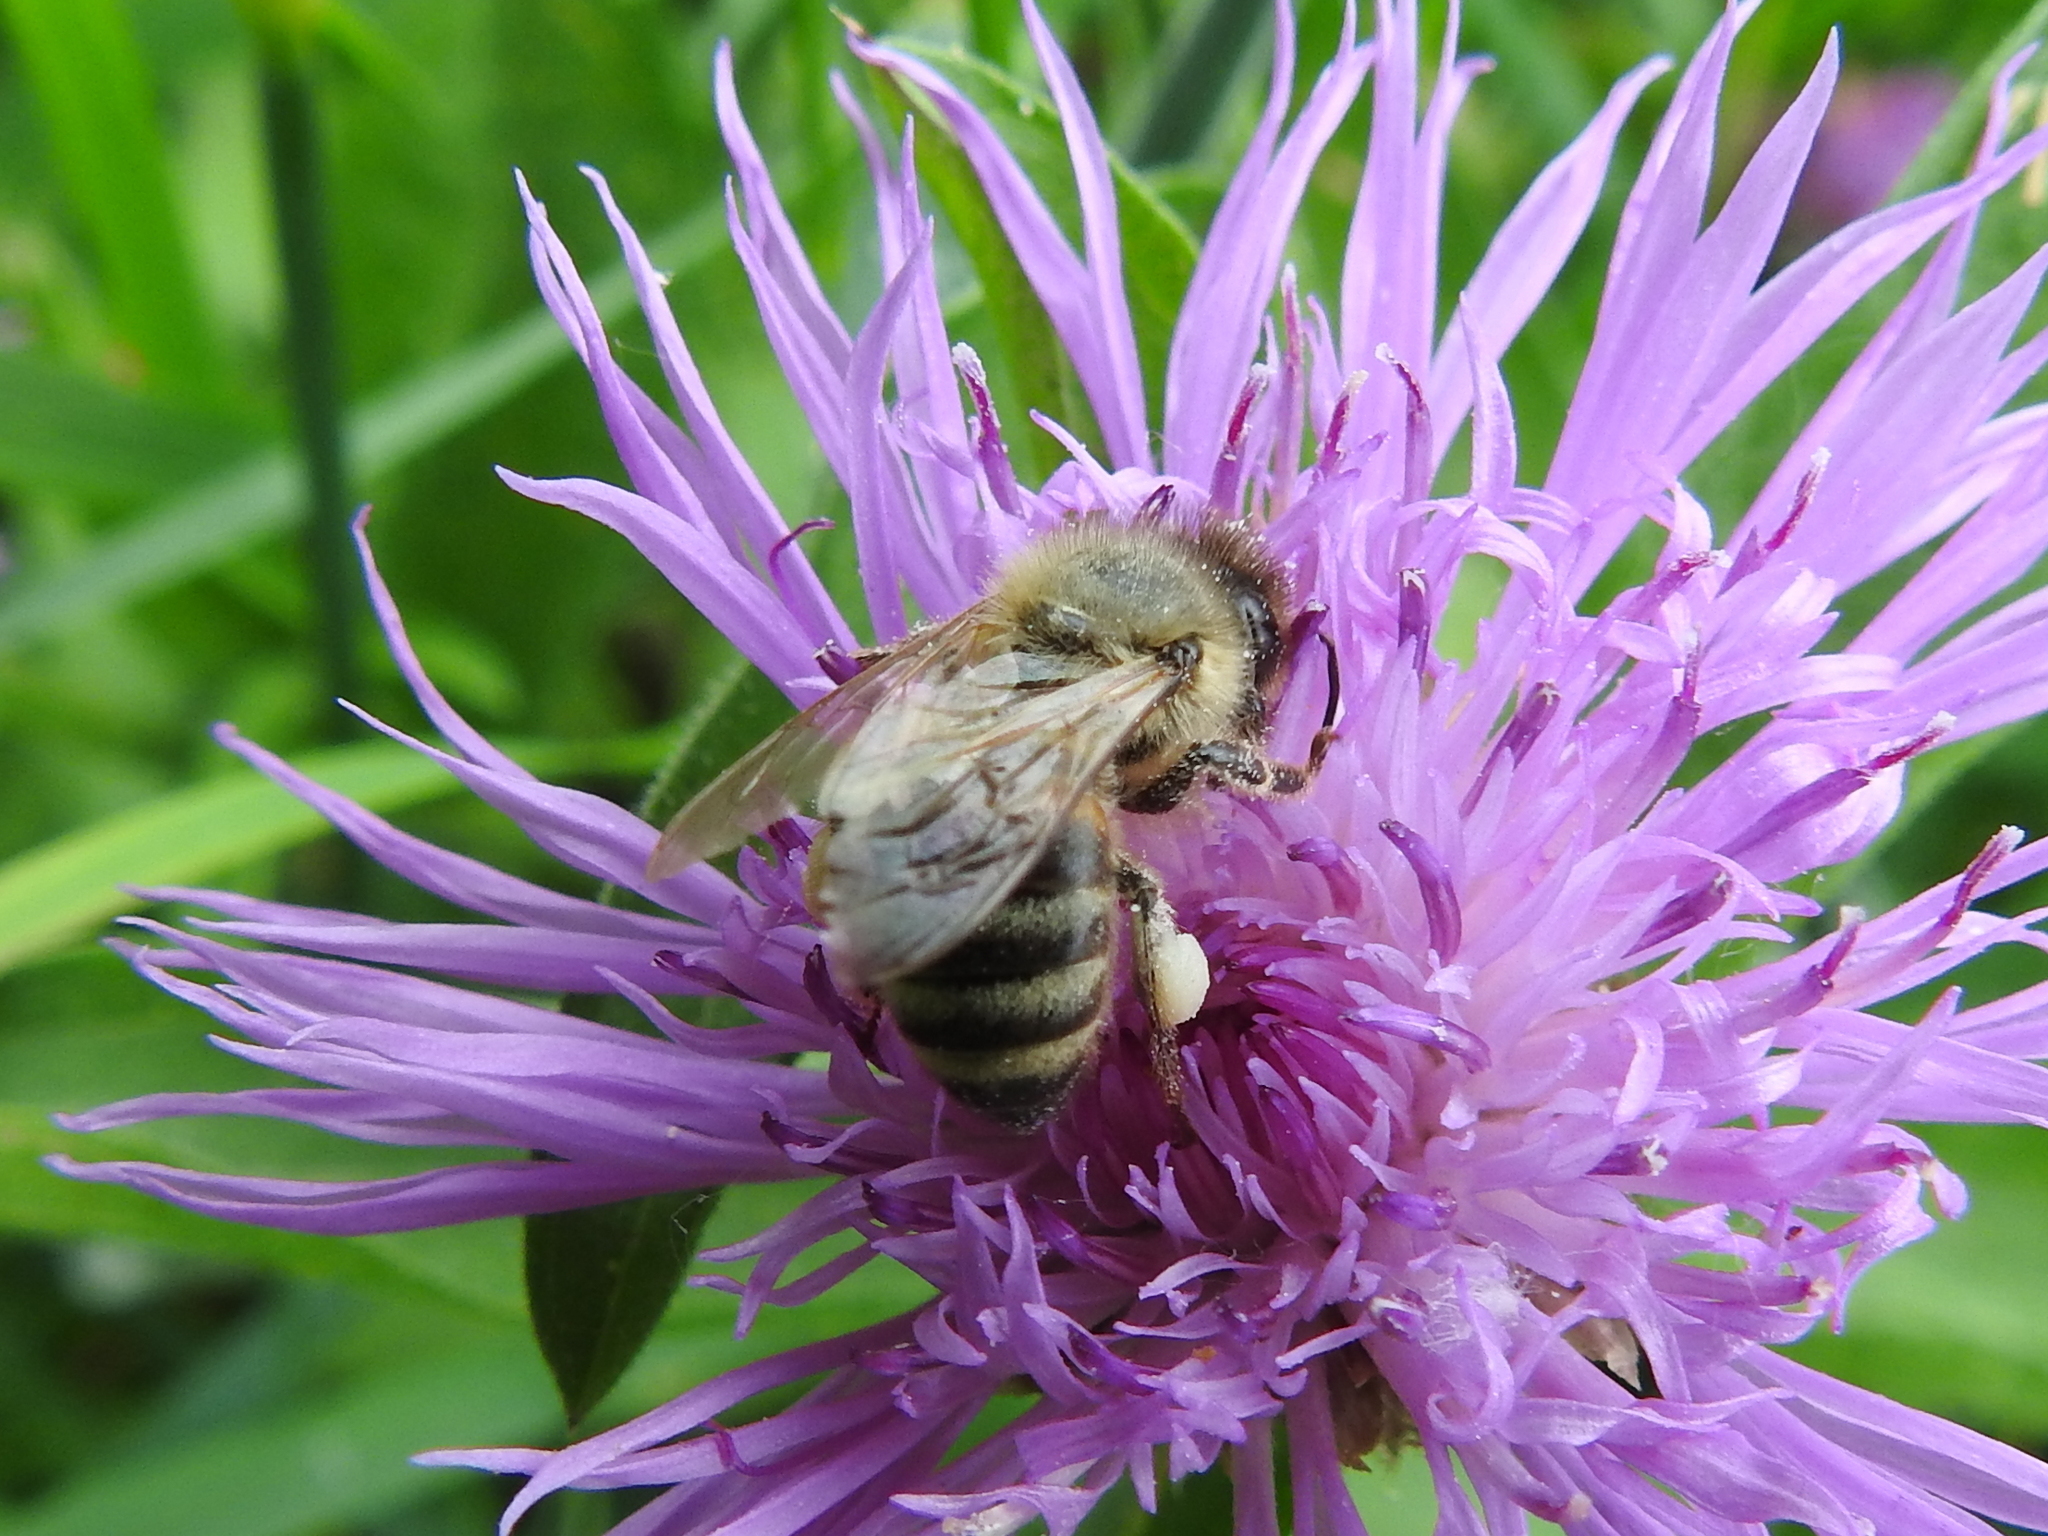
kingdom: Animalia
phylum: Arthropoda
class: Insecta
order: Hymenoptera
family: Apidae
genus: Apis
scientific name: Apis mellifera
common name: Honey bee
